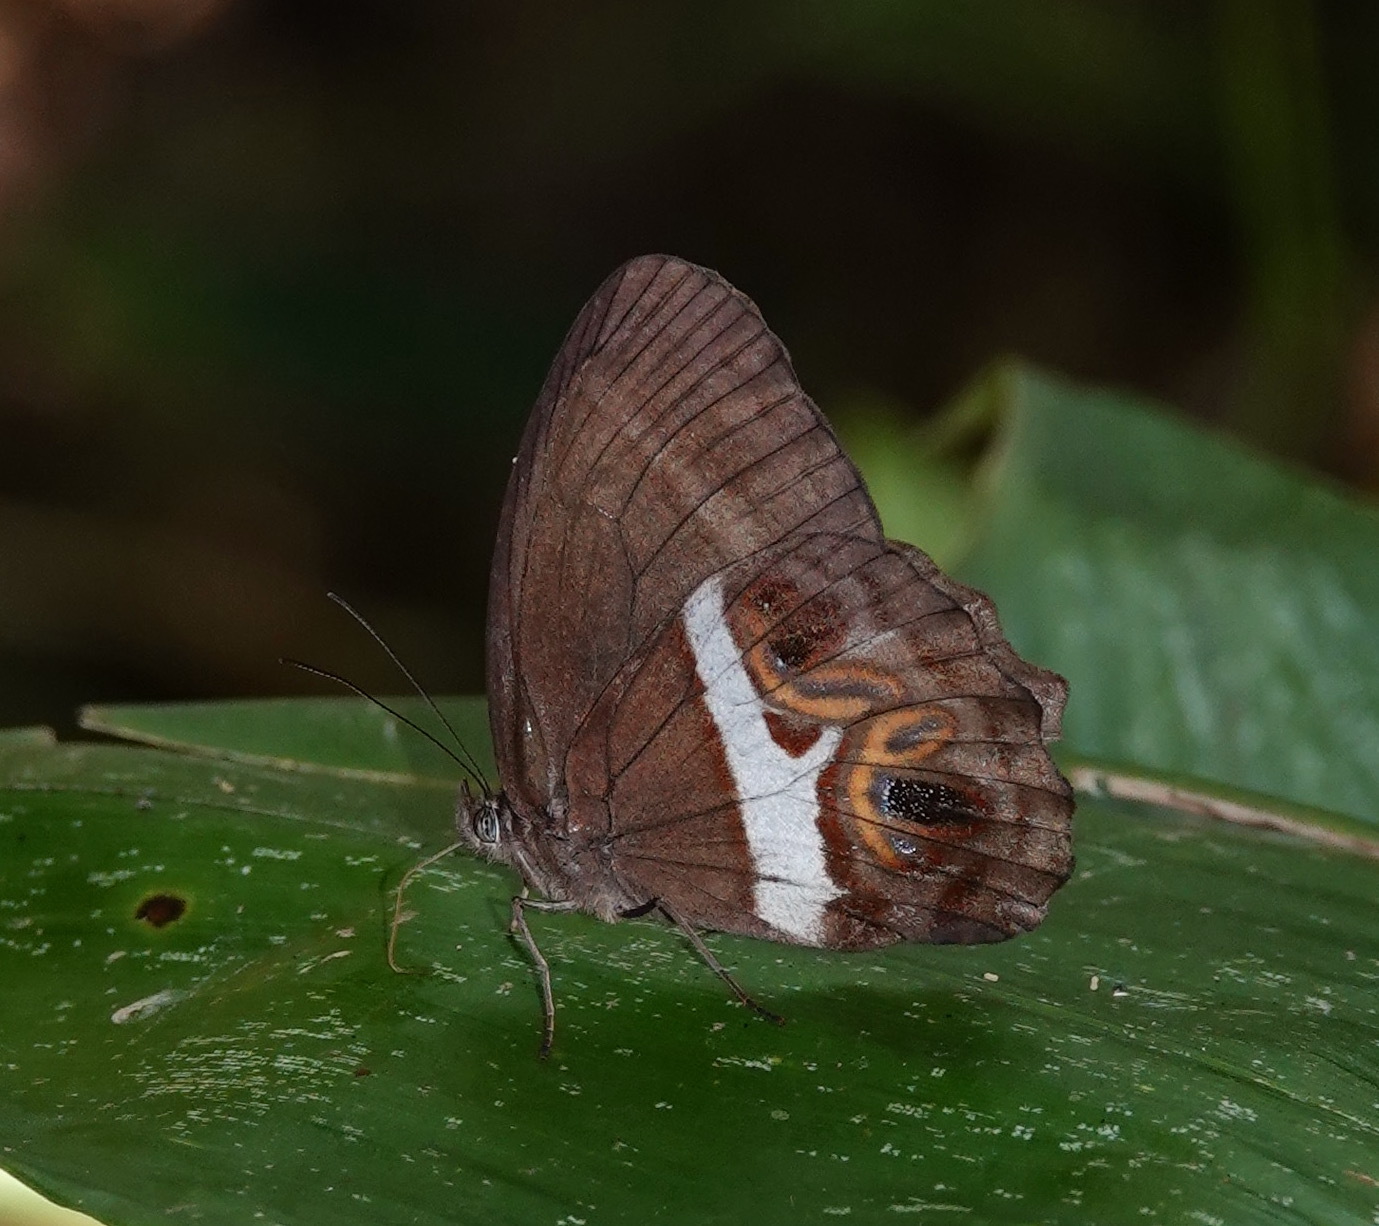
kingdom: Animalia
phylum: Arthropoda
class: Insecta
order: Lepidoptera
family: Nymphalidae
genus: Amphidecta
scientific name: Amphidecta
